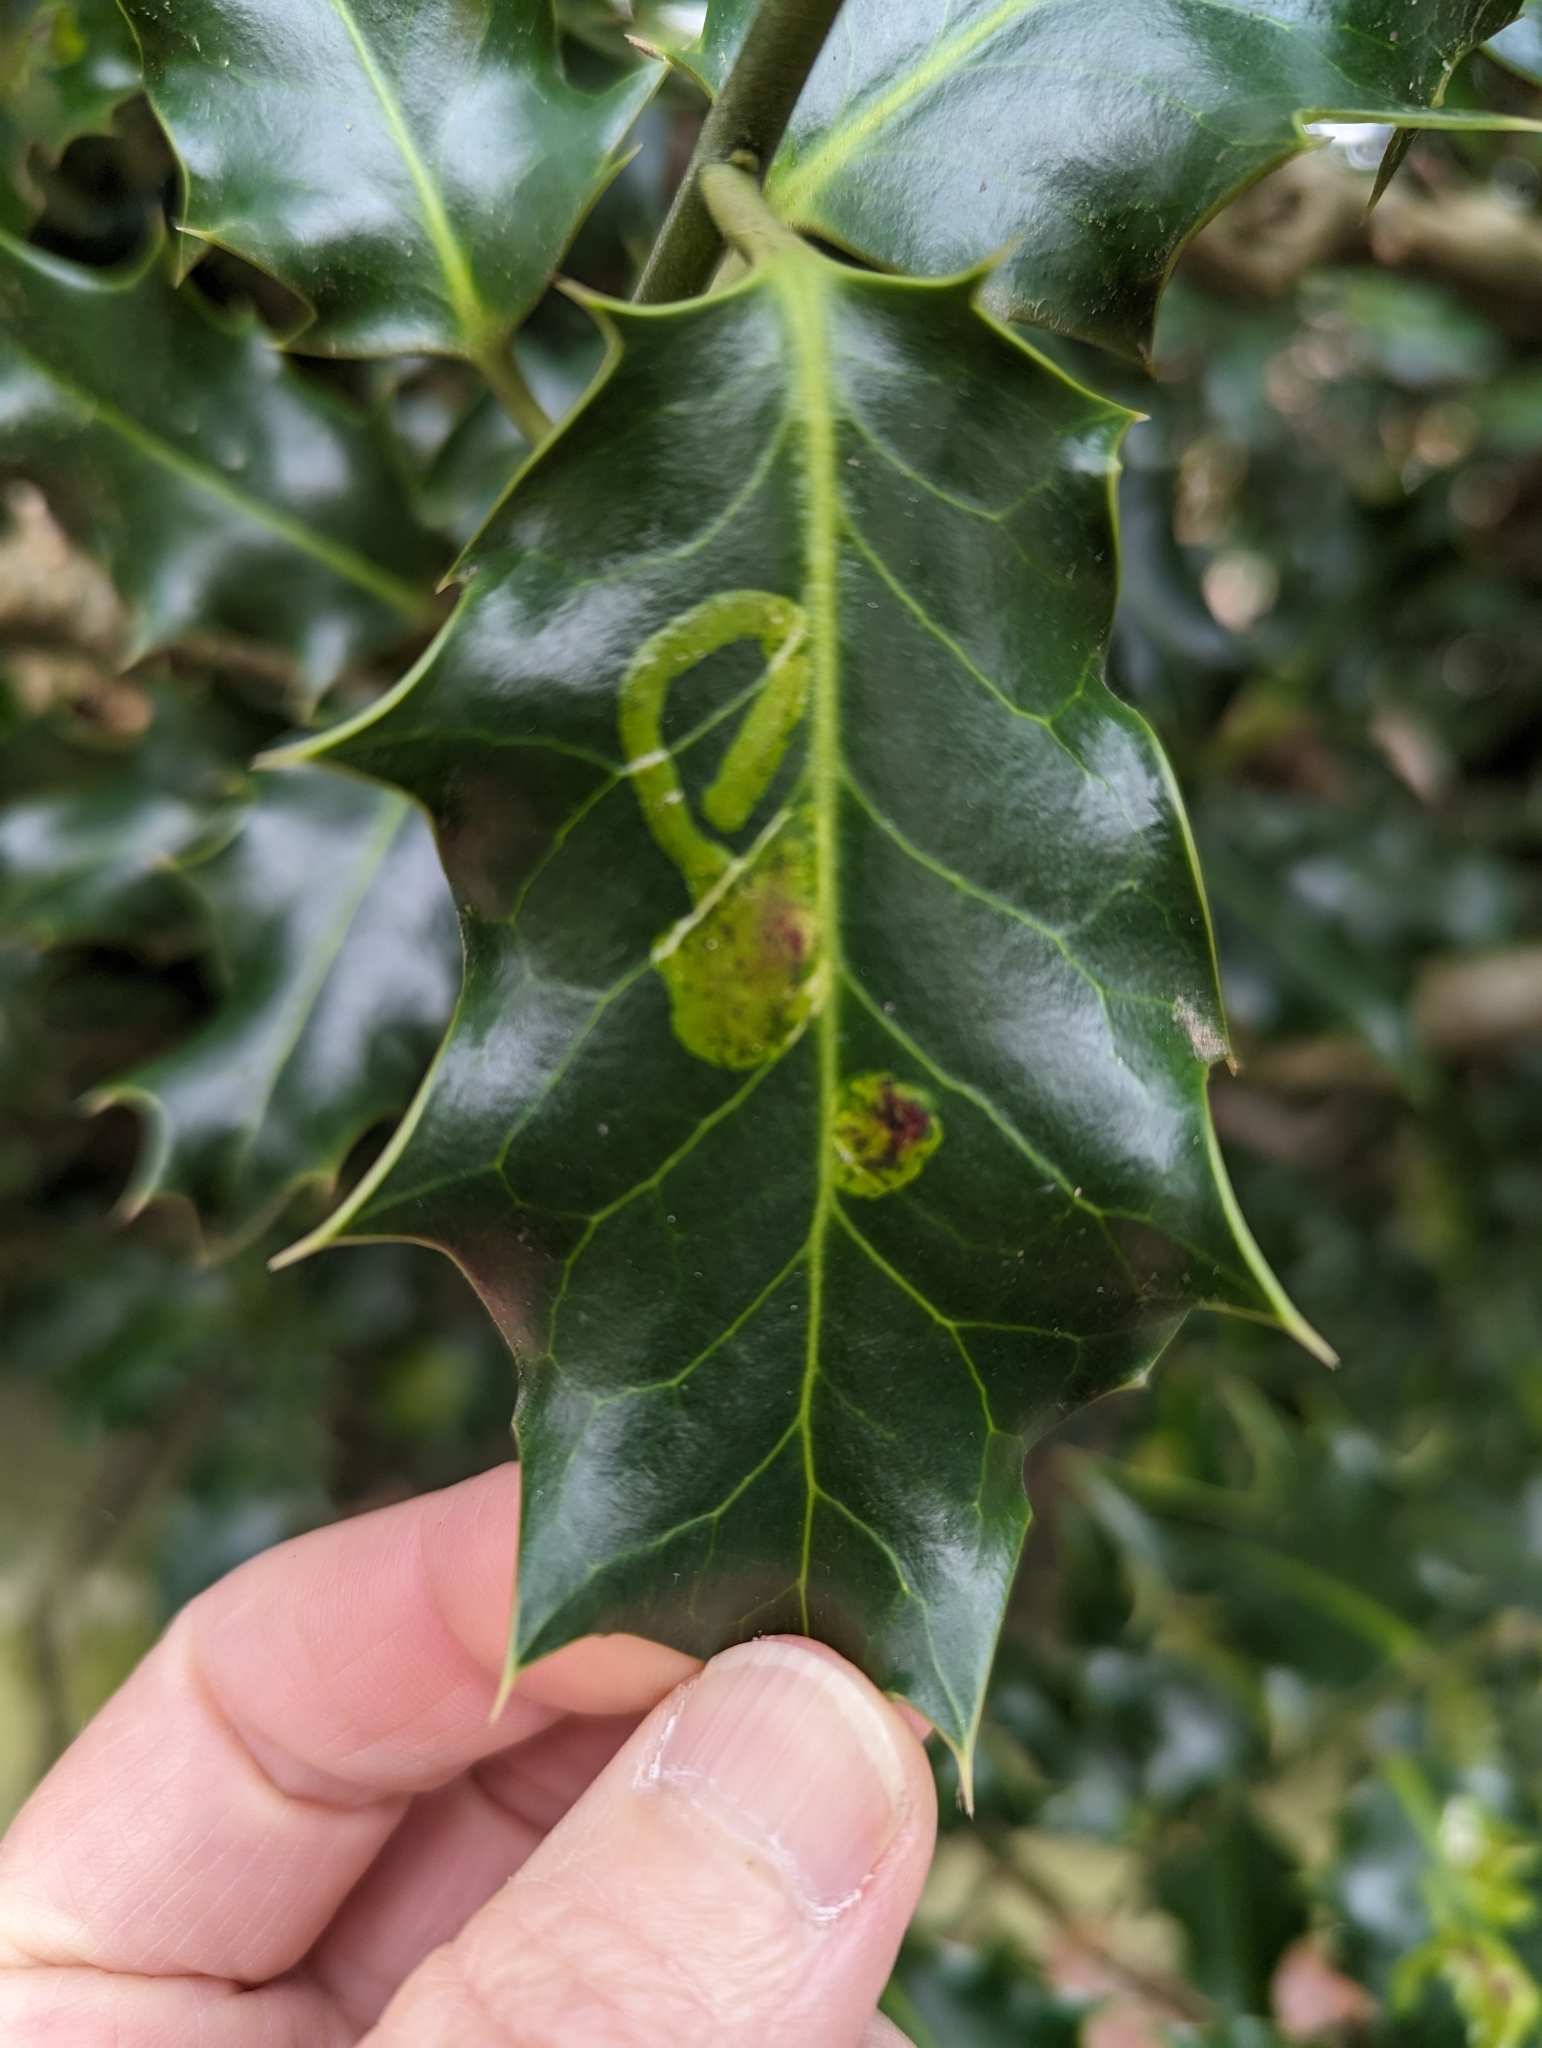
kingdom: Animalia
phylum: Arthropoda
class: Insecta
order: Diptera
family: Agromyzidae
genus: Phytomyza
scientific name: Phytomyza ilicis
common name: Holly leafminer
